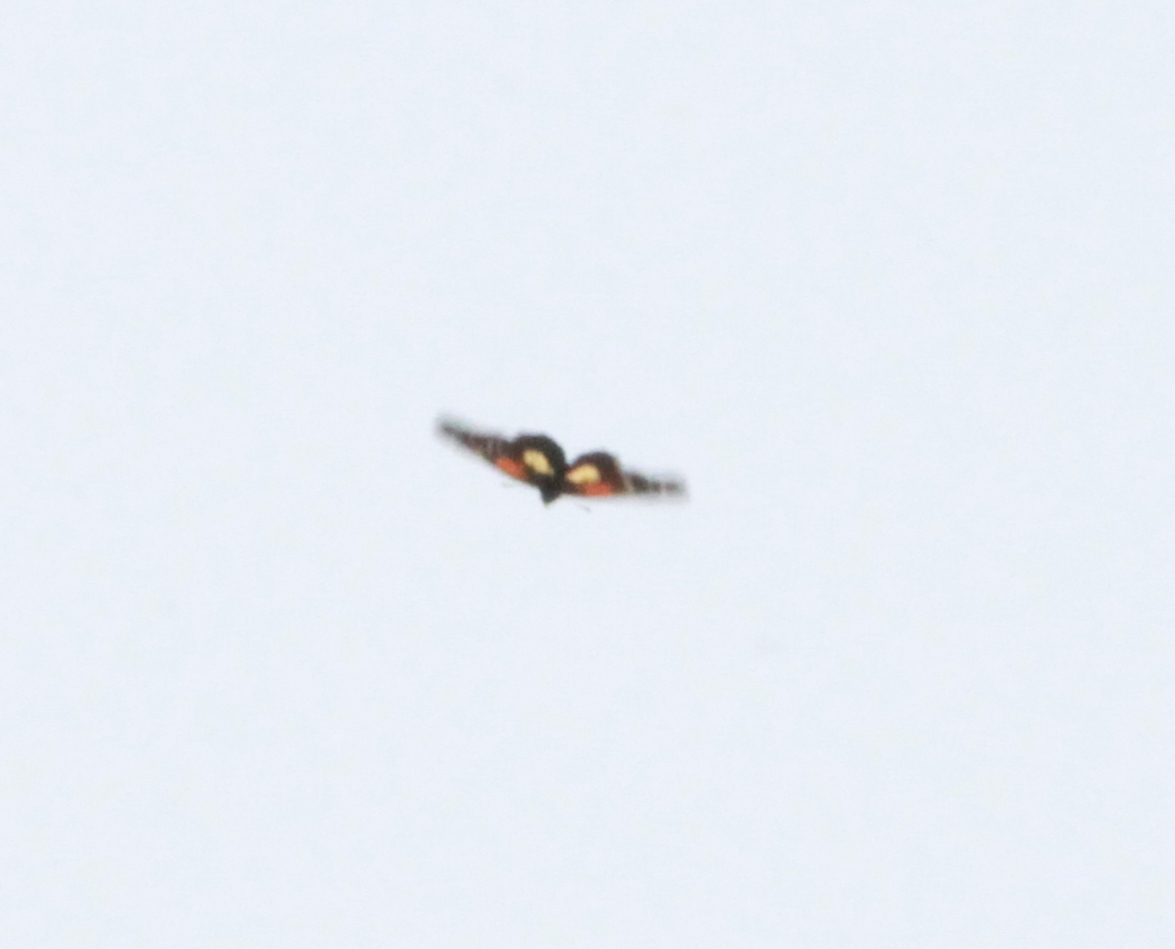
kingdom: Animalia
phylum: Arthropoda
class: Insecta
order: Lepidoptera
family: Nymphalidae
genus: Chlosyne
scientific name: Chlosyne gaudialis
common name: Gaudy checkerspot
